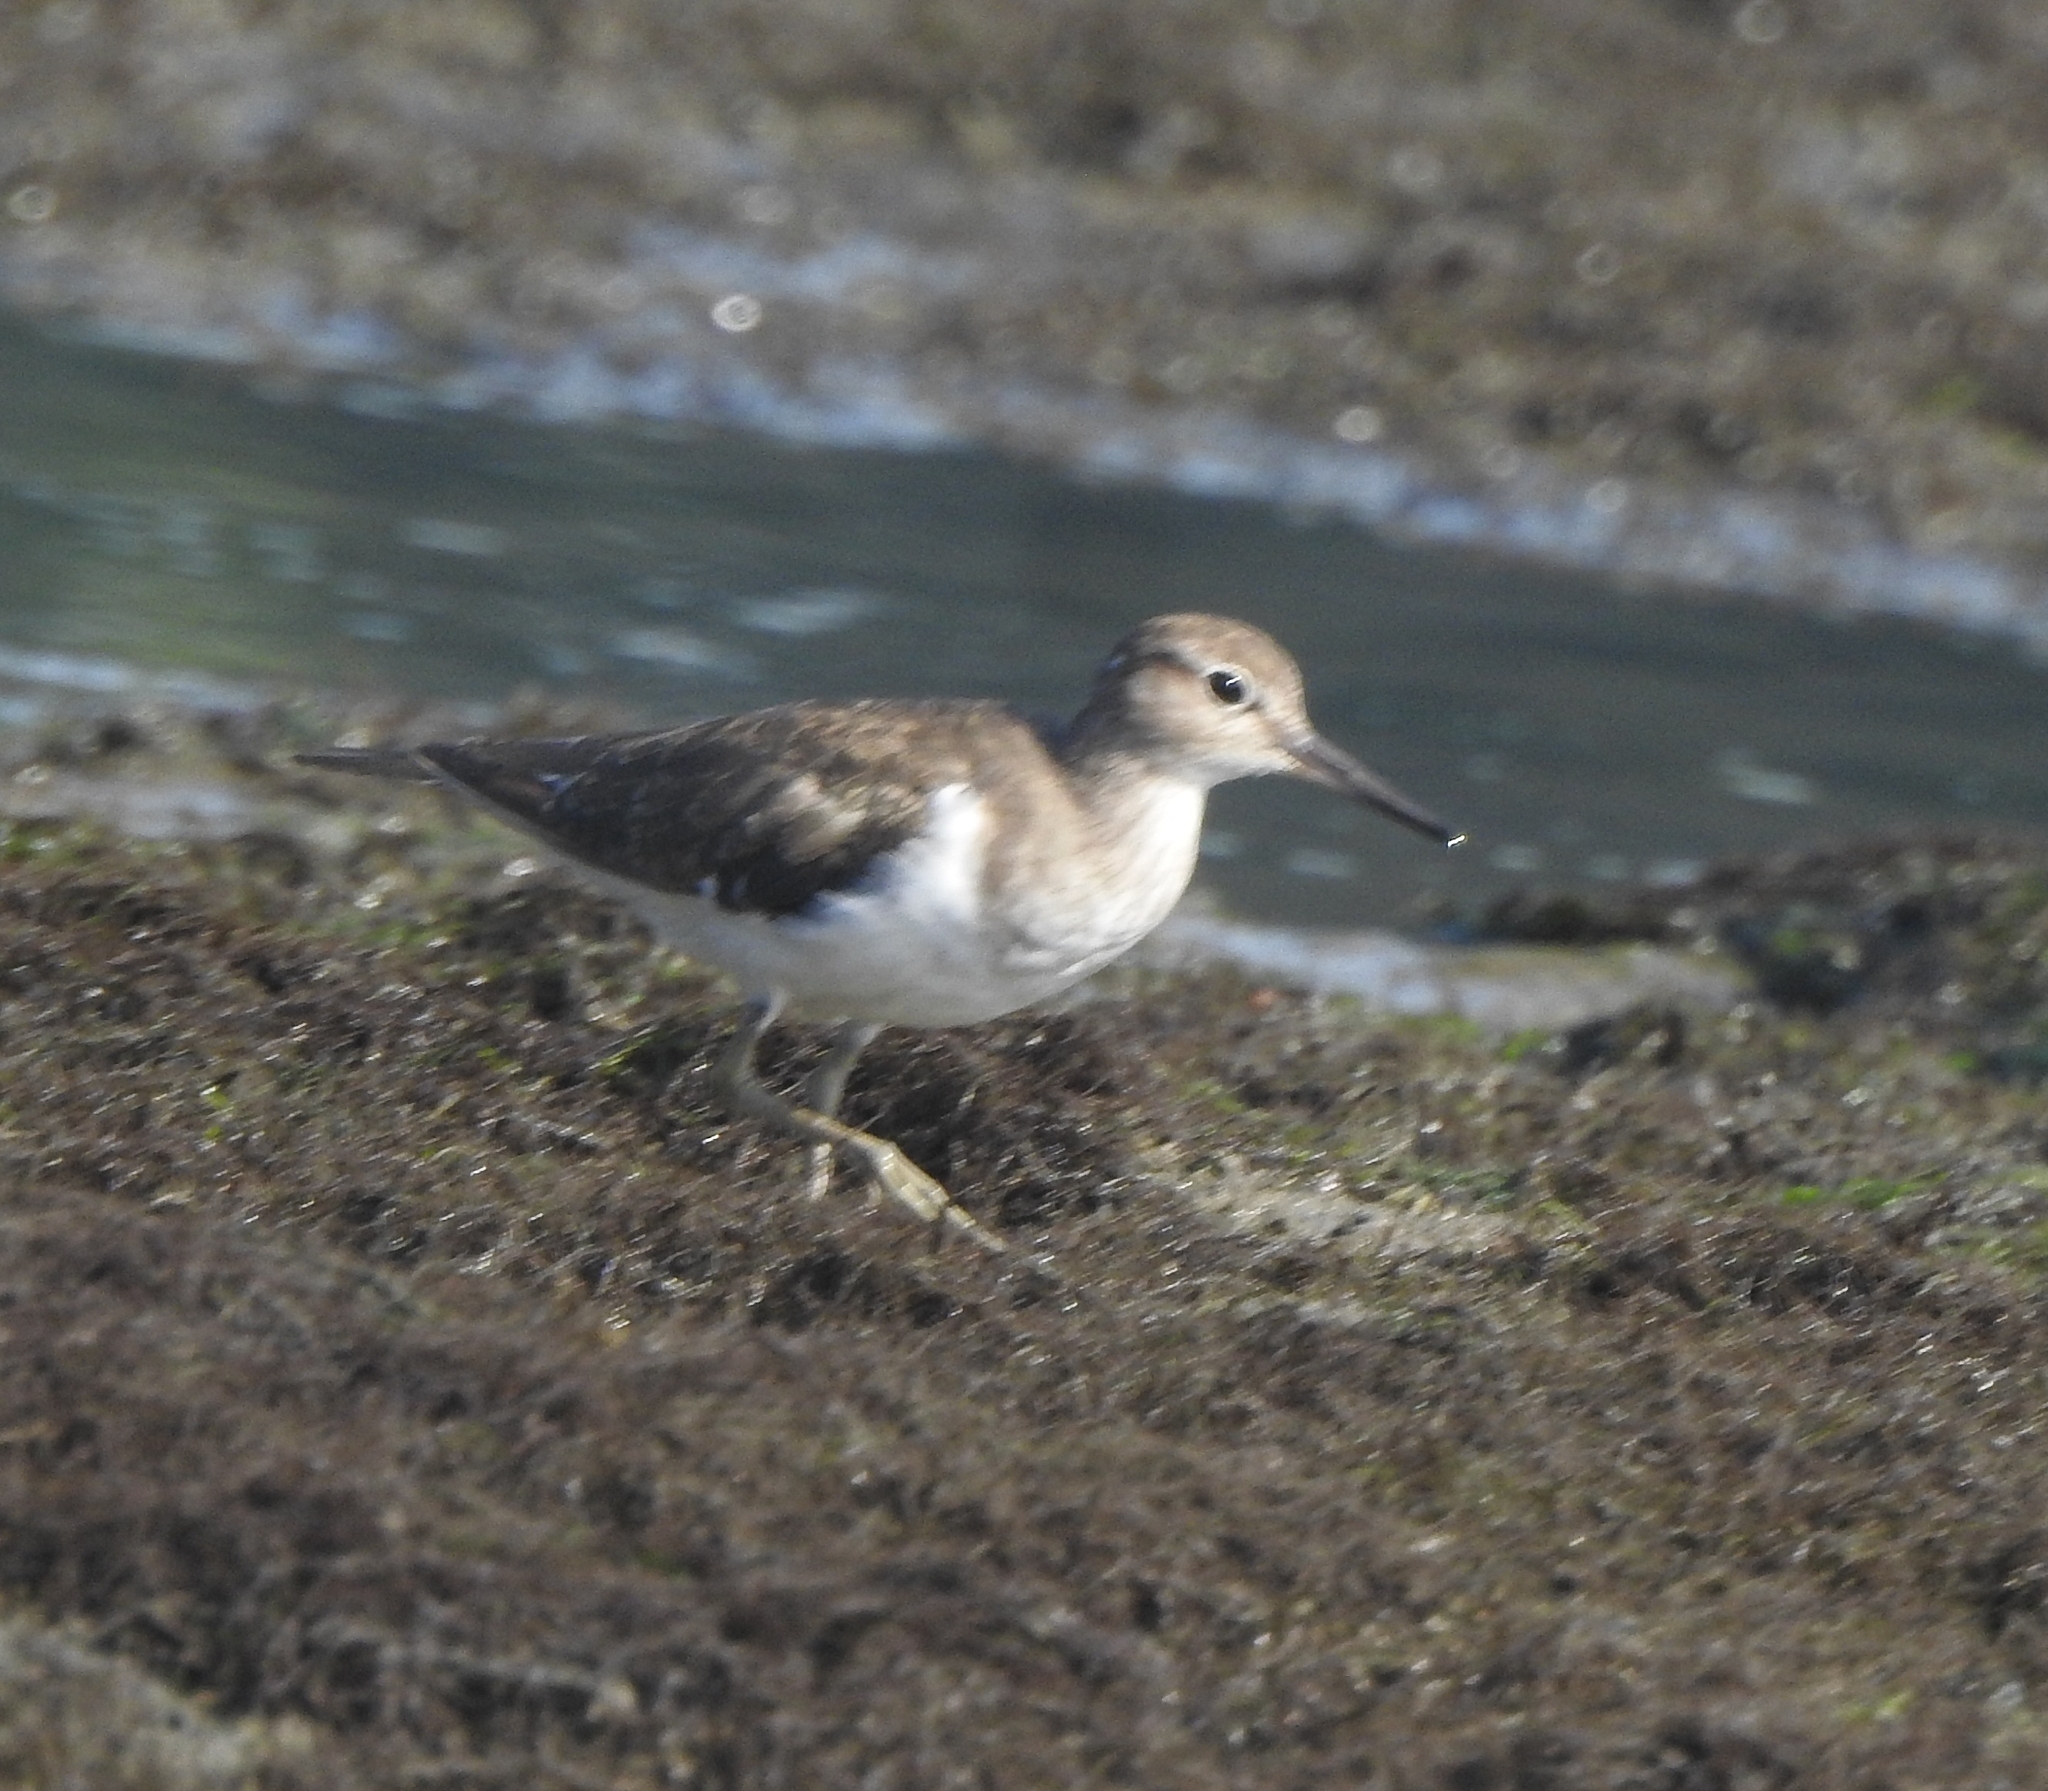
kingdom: Animalia
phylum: Chordata
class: Aves
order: Charadriiformes
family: Scolopacidae
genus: Actitis
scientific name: Actitis hypoleucos
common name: Common sandpiper
